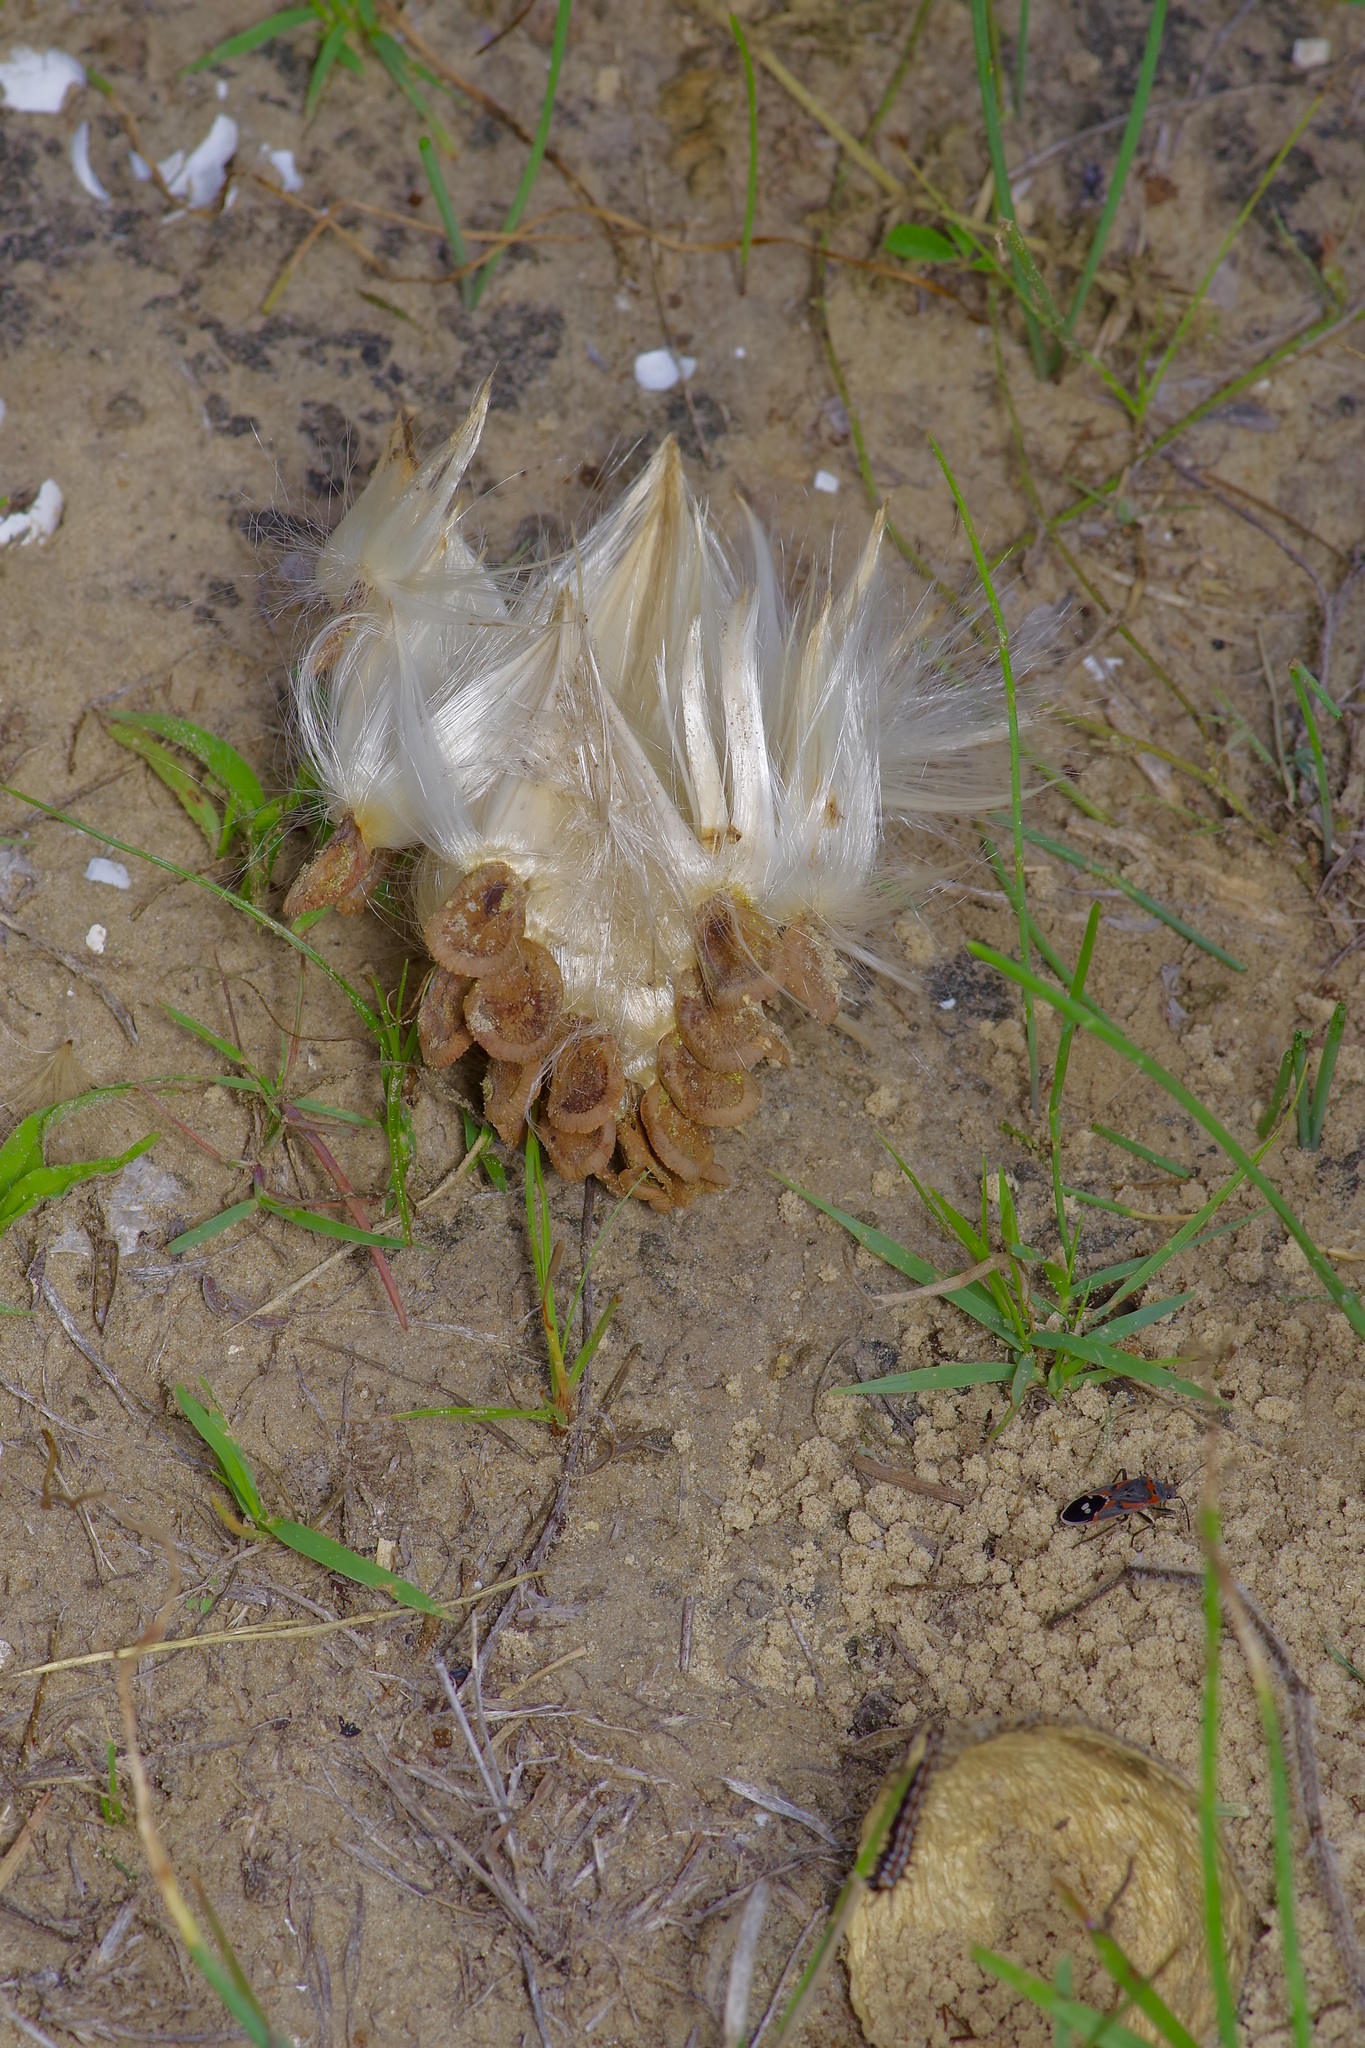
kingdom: Plantae
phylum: Tracheophyta
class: Magnoliopsida
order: Gentianales
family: Apocynaceae
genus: Chthamalia
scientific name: Chthamalia parviflora
